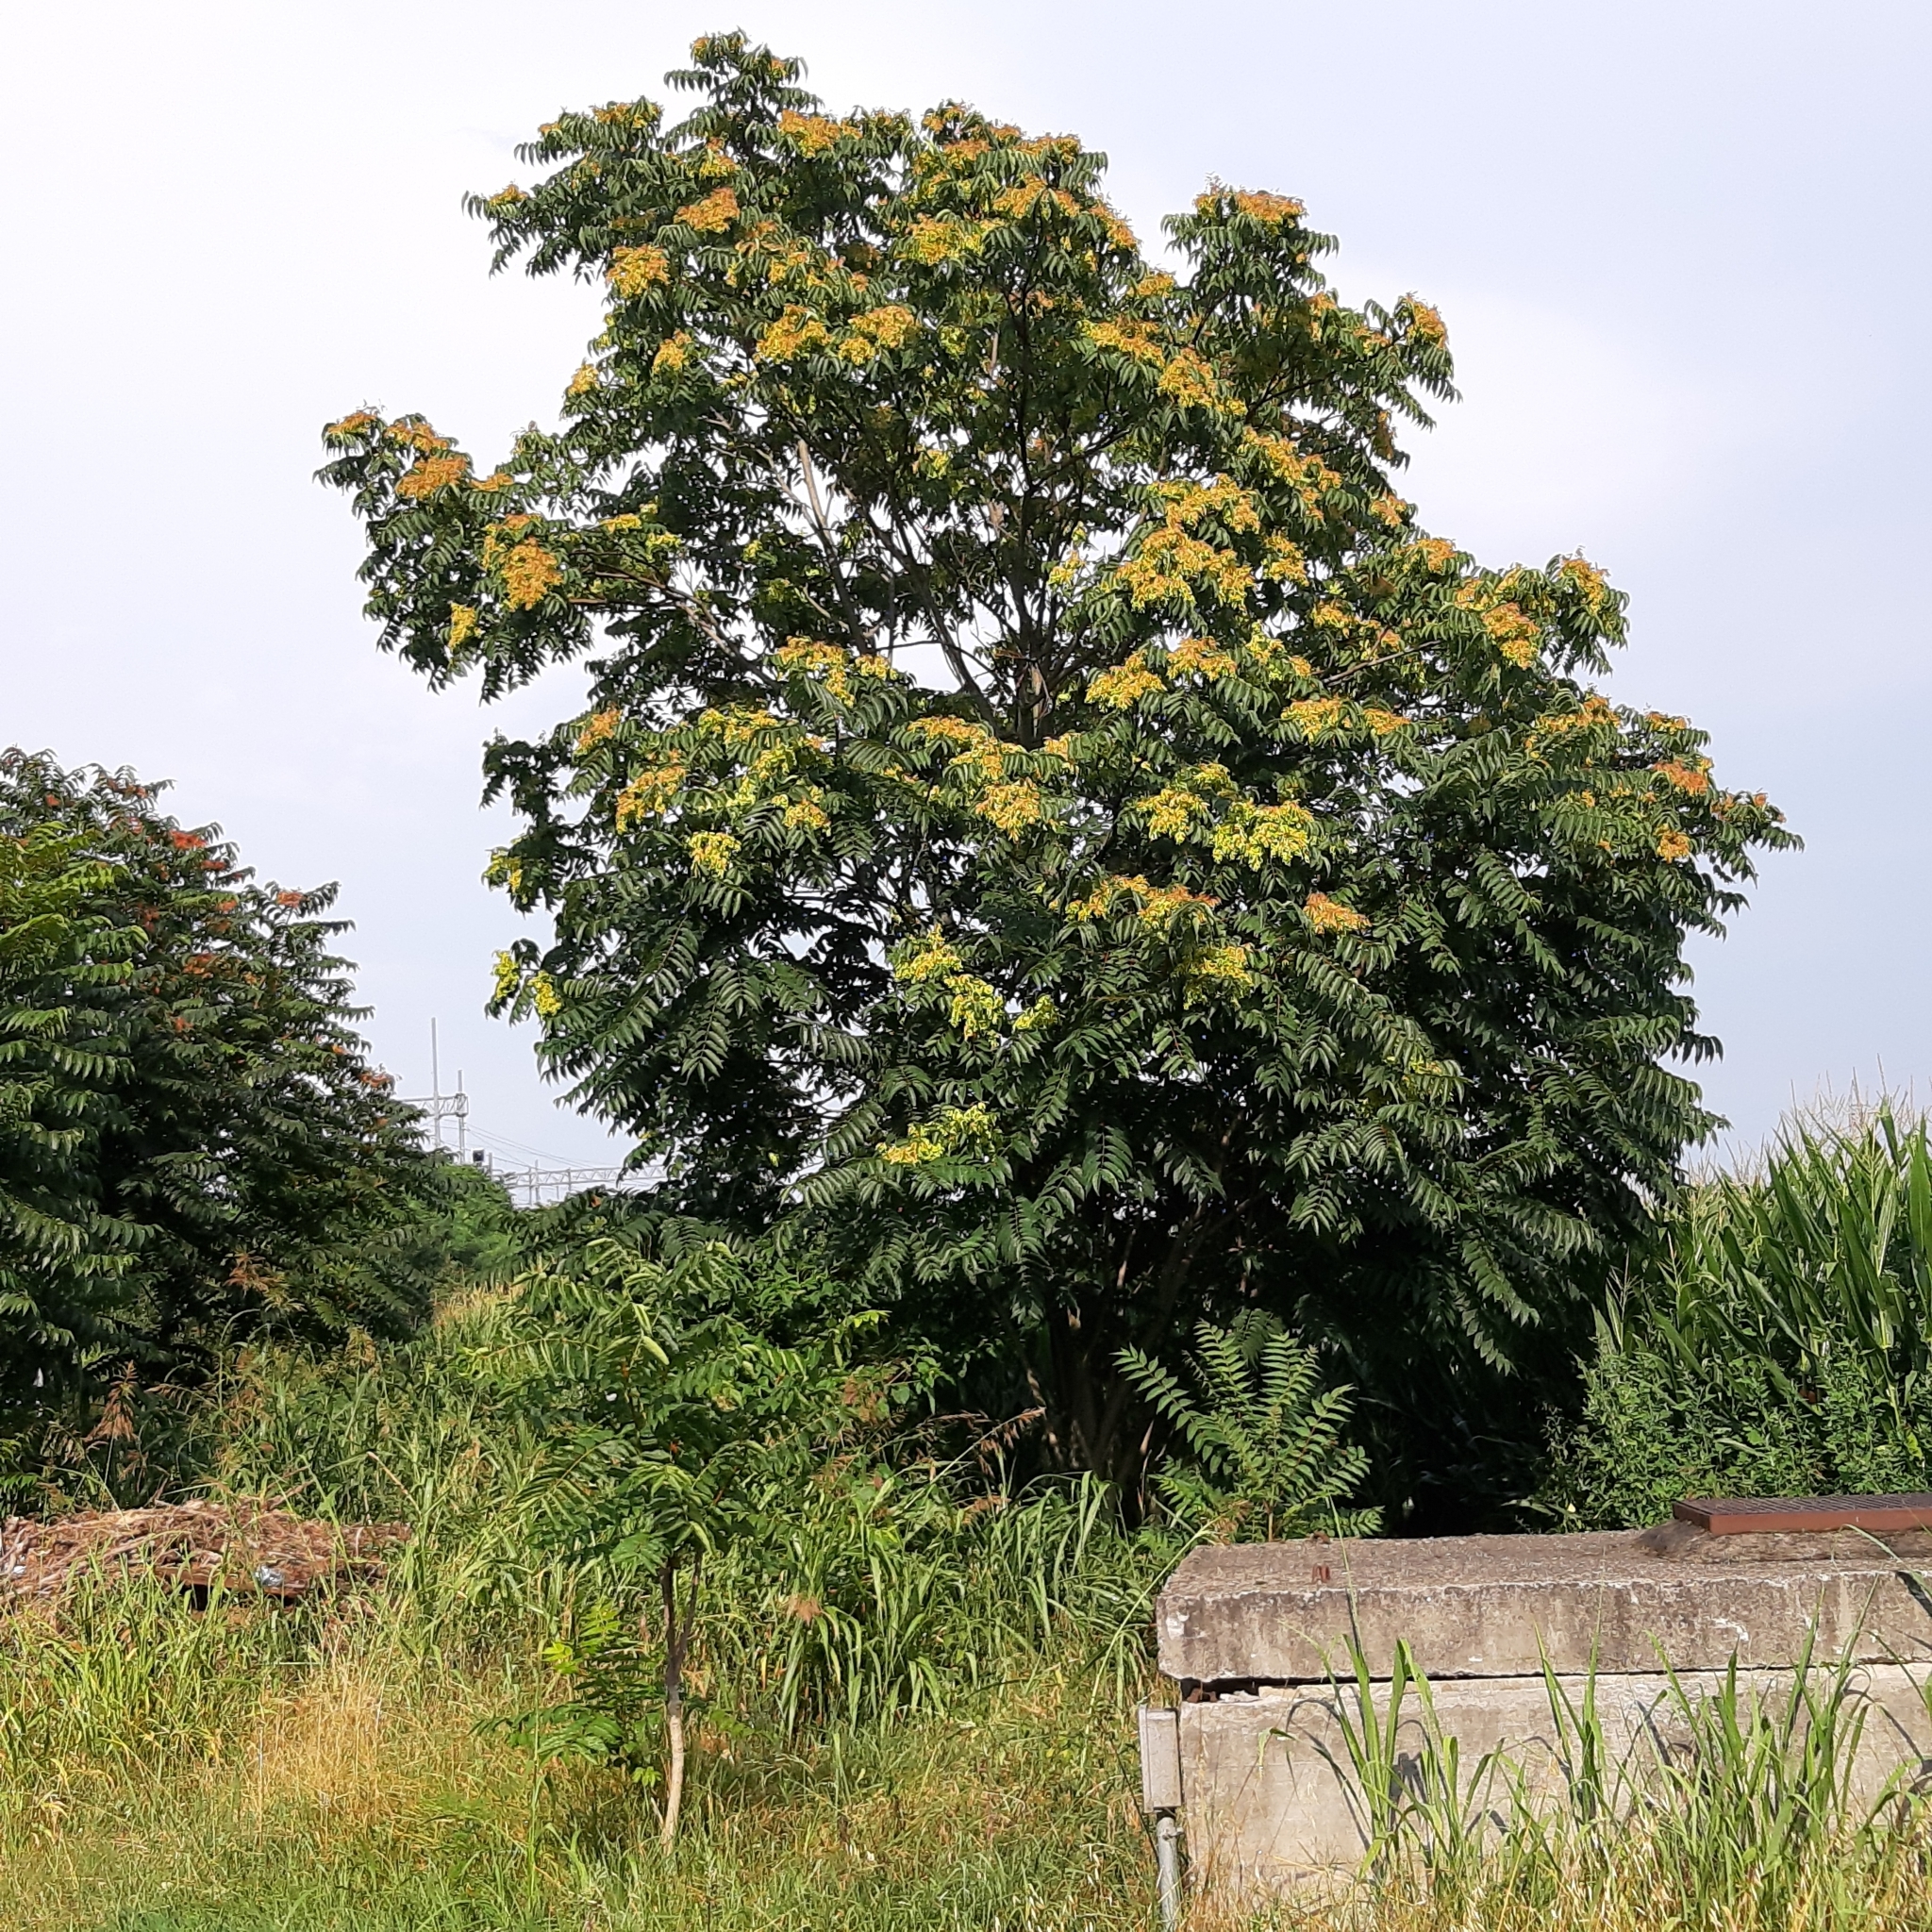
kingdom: Plantae
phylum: Tracheophyta
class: Magnoliopsida
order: Sapindales
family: Simaroubaceae
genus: Ailanthus
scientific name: Ailanthus altissima
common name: Tree-of-heaven
